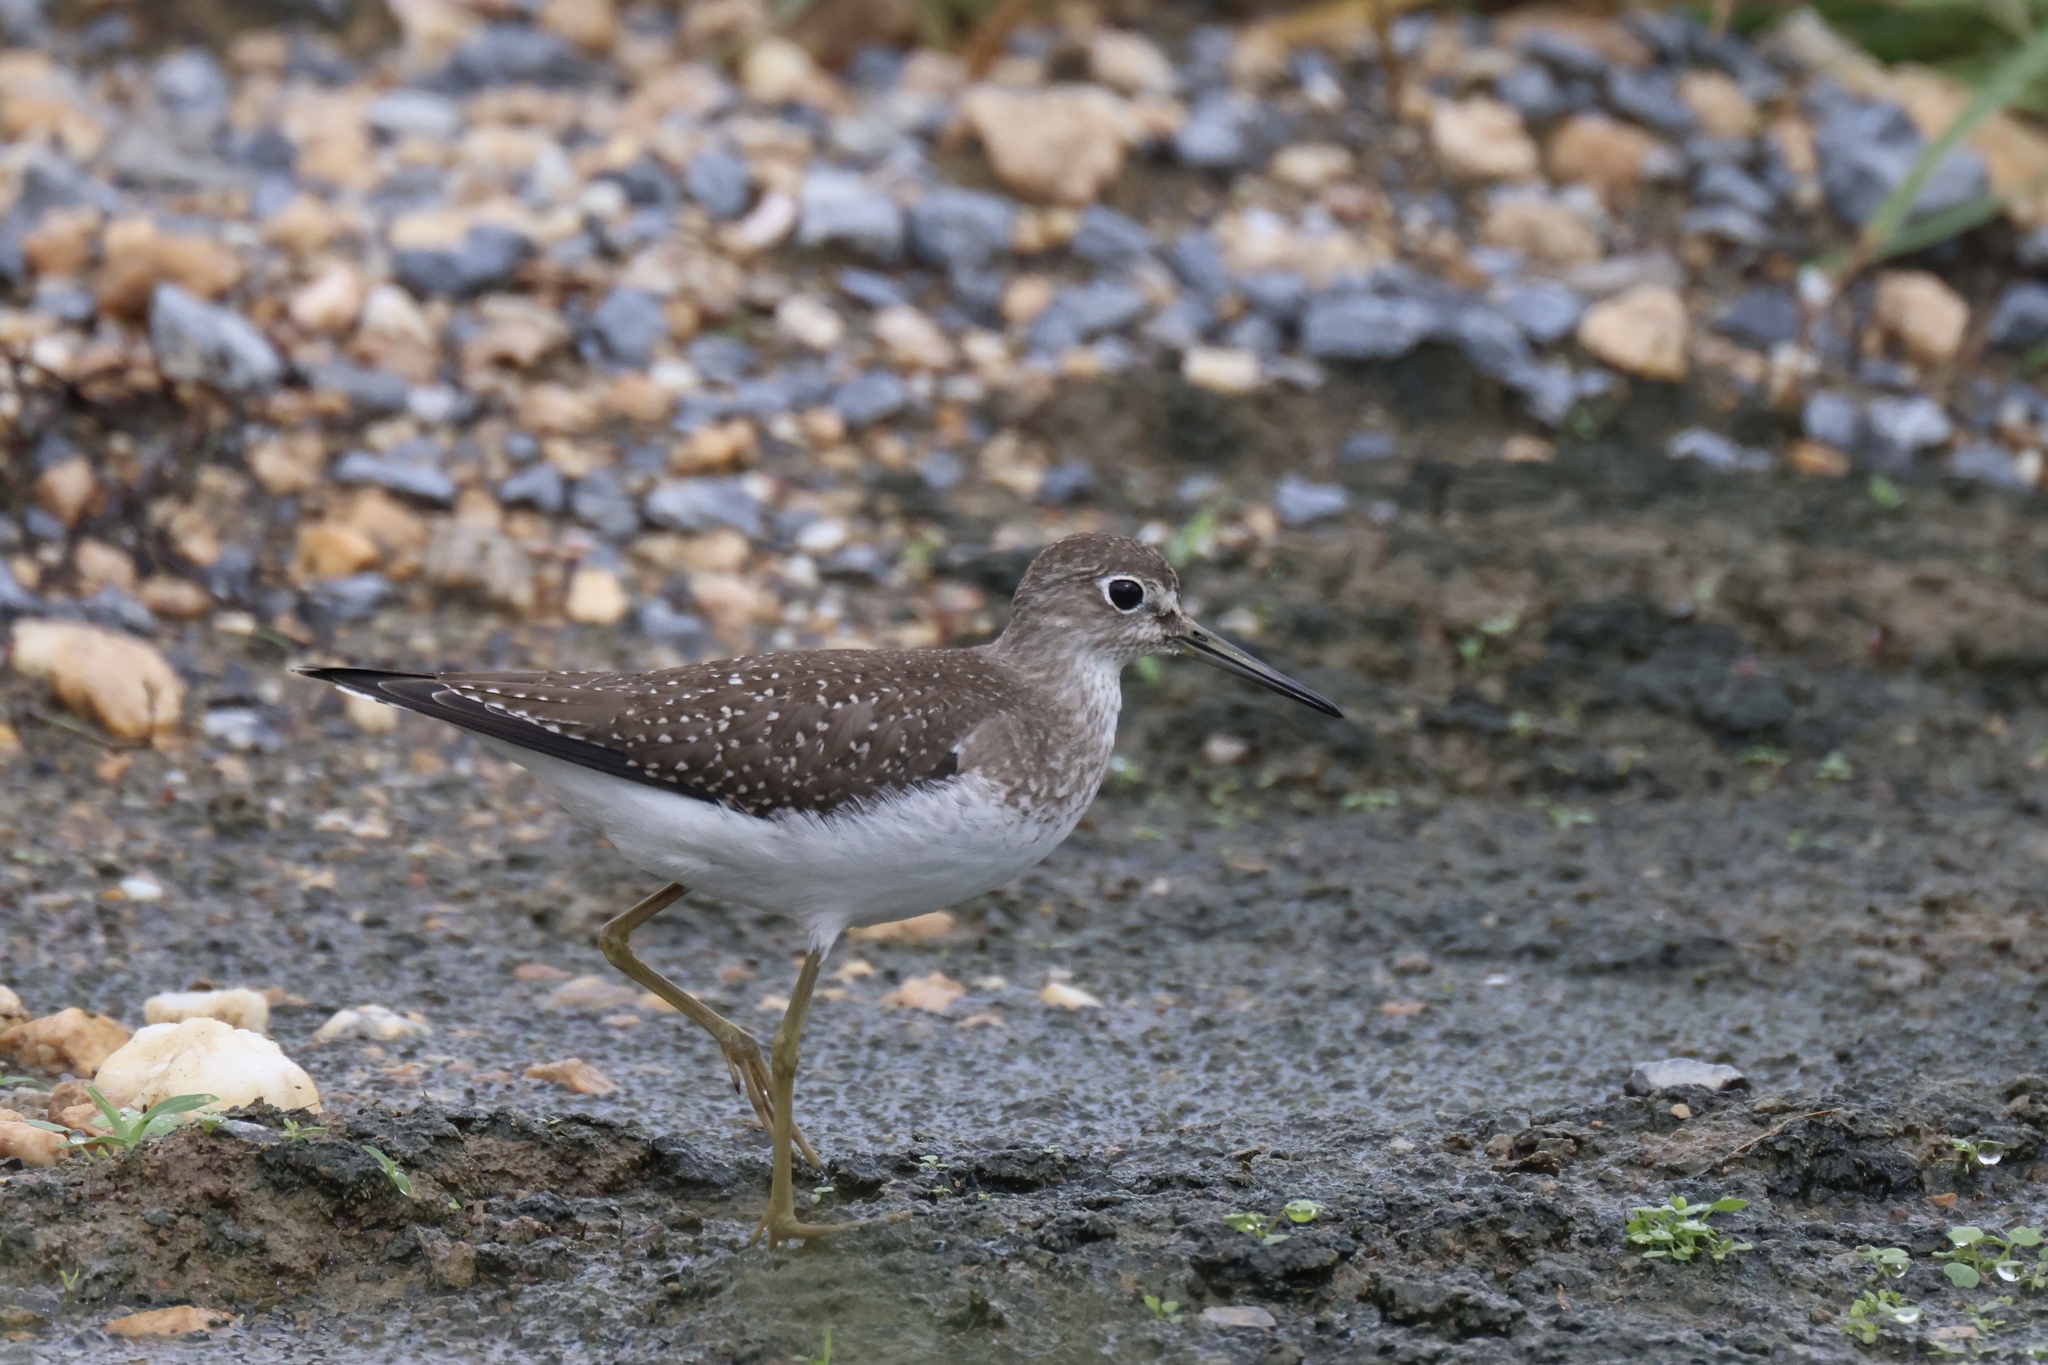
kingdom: Animalia
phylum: Chordata
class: Aves
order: Charadriiformes
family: Scolopacidae
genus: Tringa
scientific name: Tringa solitaria
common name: Solitary sandpiper
